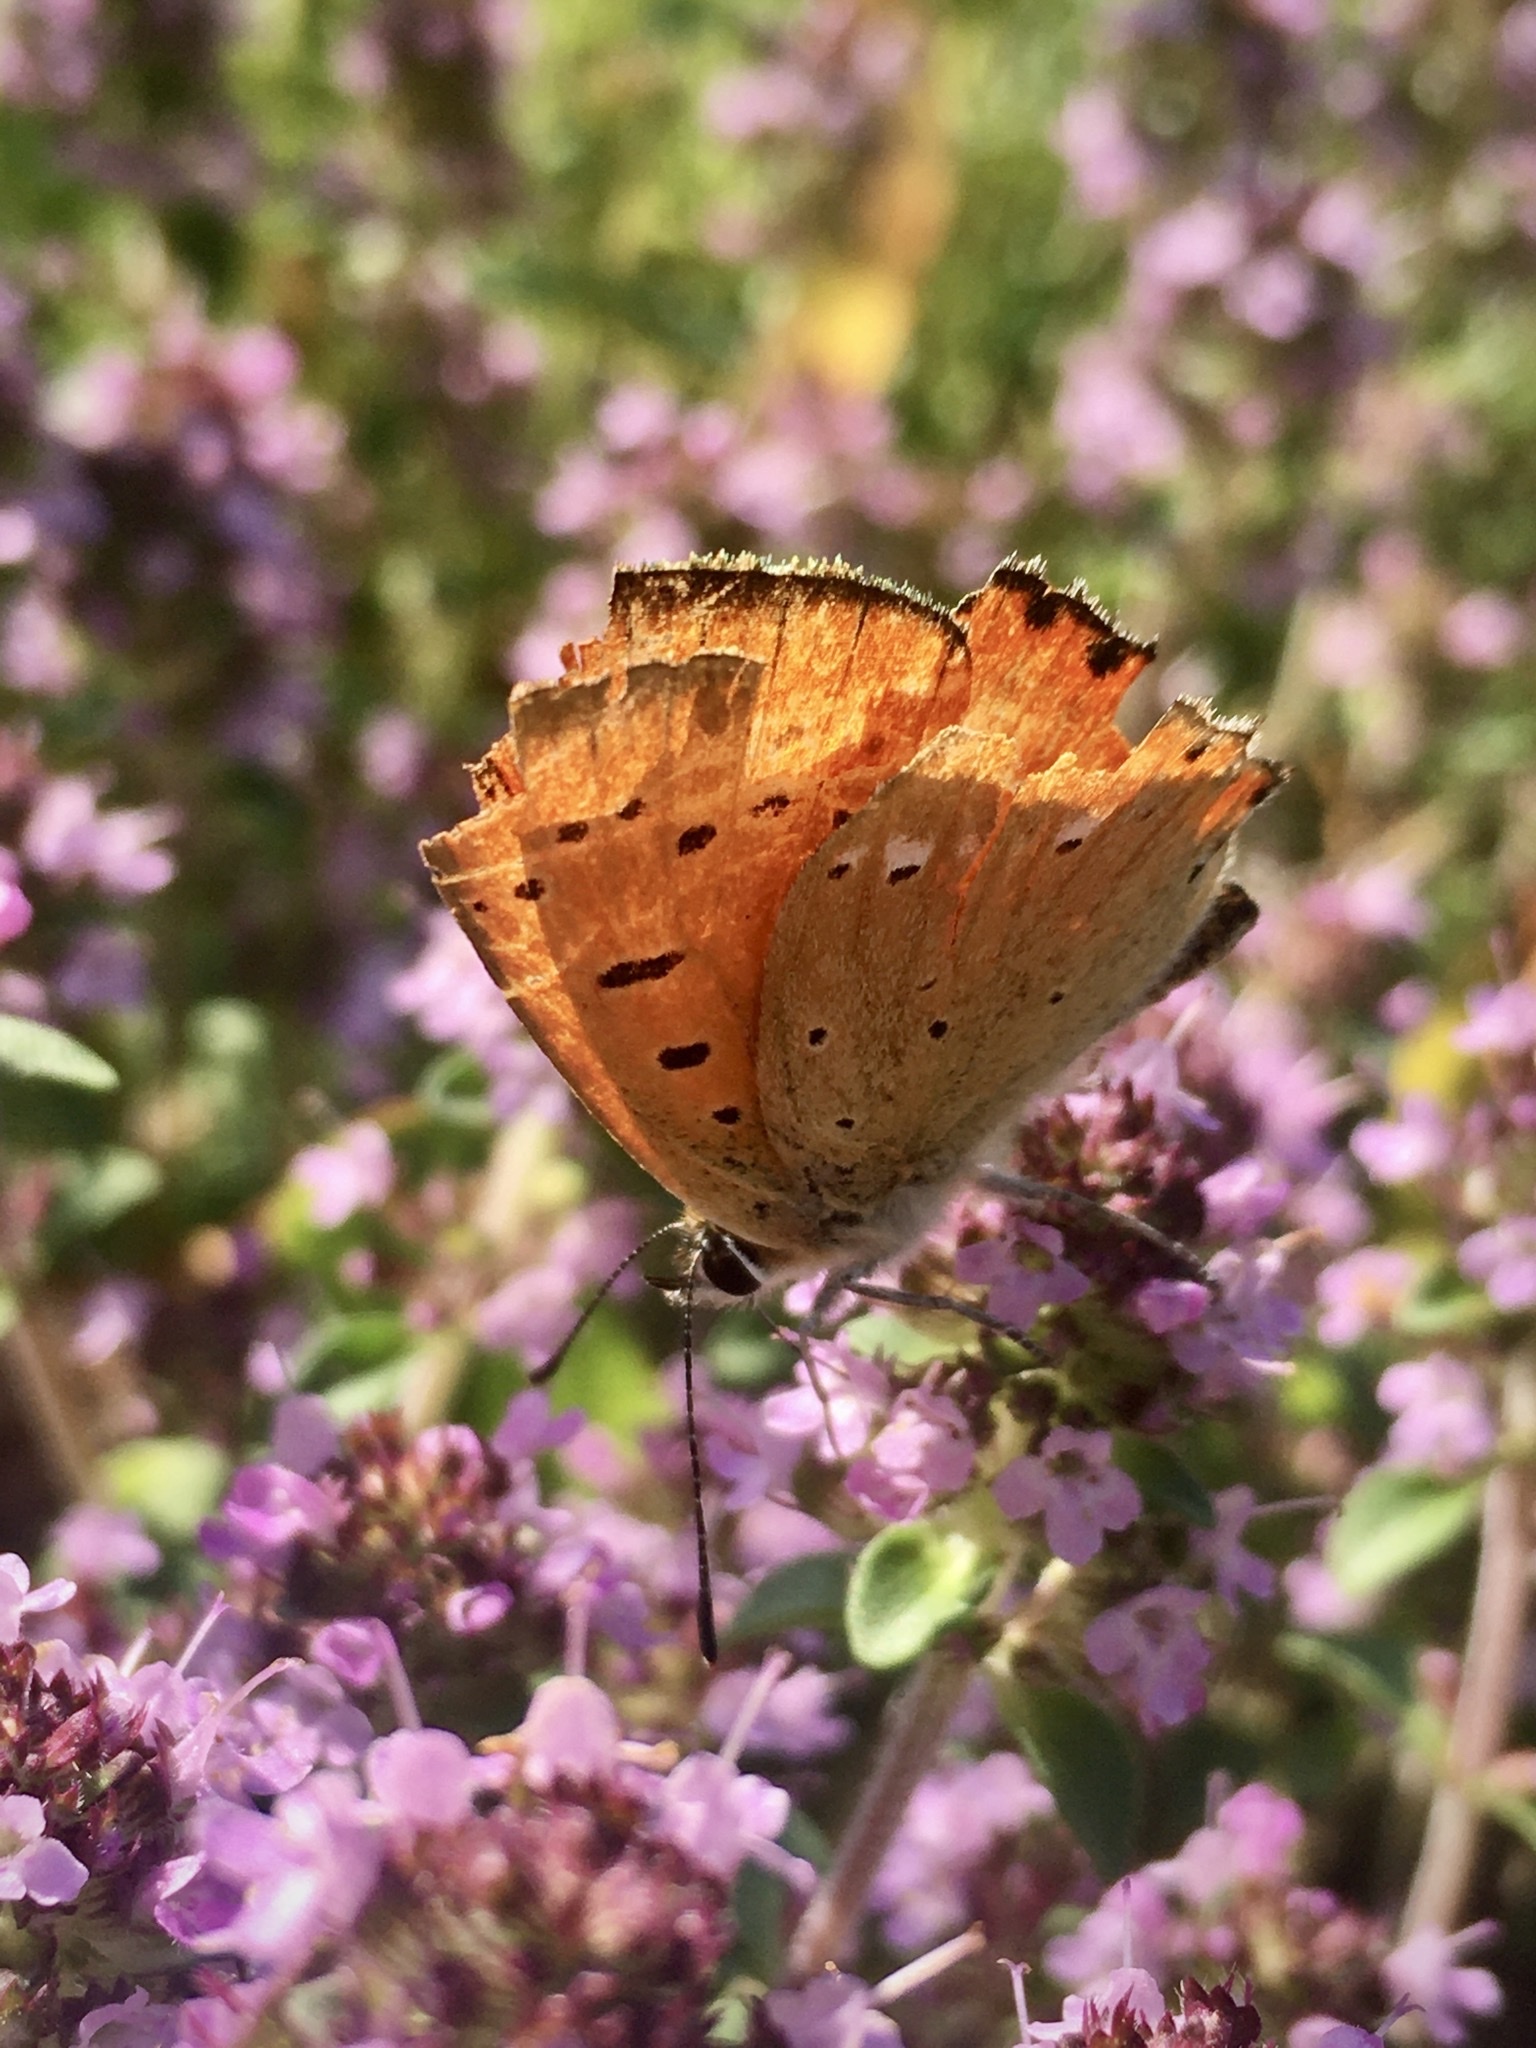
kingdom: Animalia
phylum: Arthropoda
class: Insecta
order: Lepidoptera
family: Lycaenidae
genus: Lycaena
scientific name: Lycaena virgaureae
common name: Scarce copper
